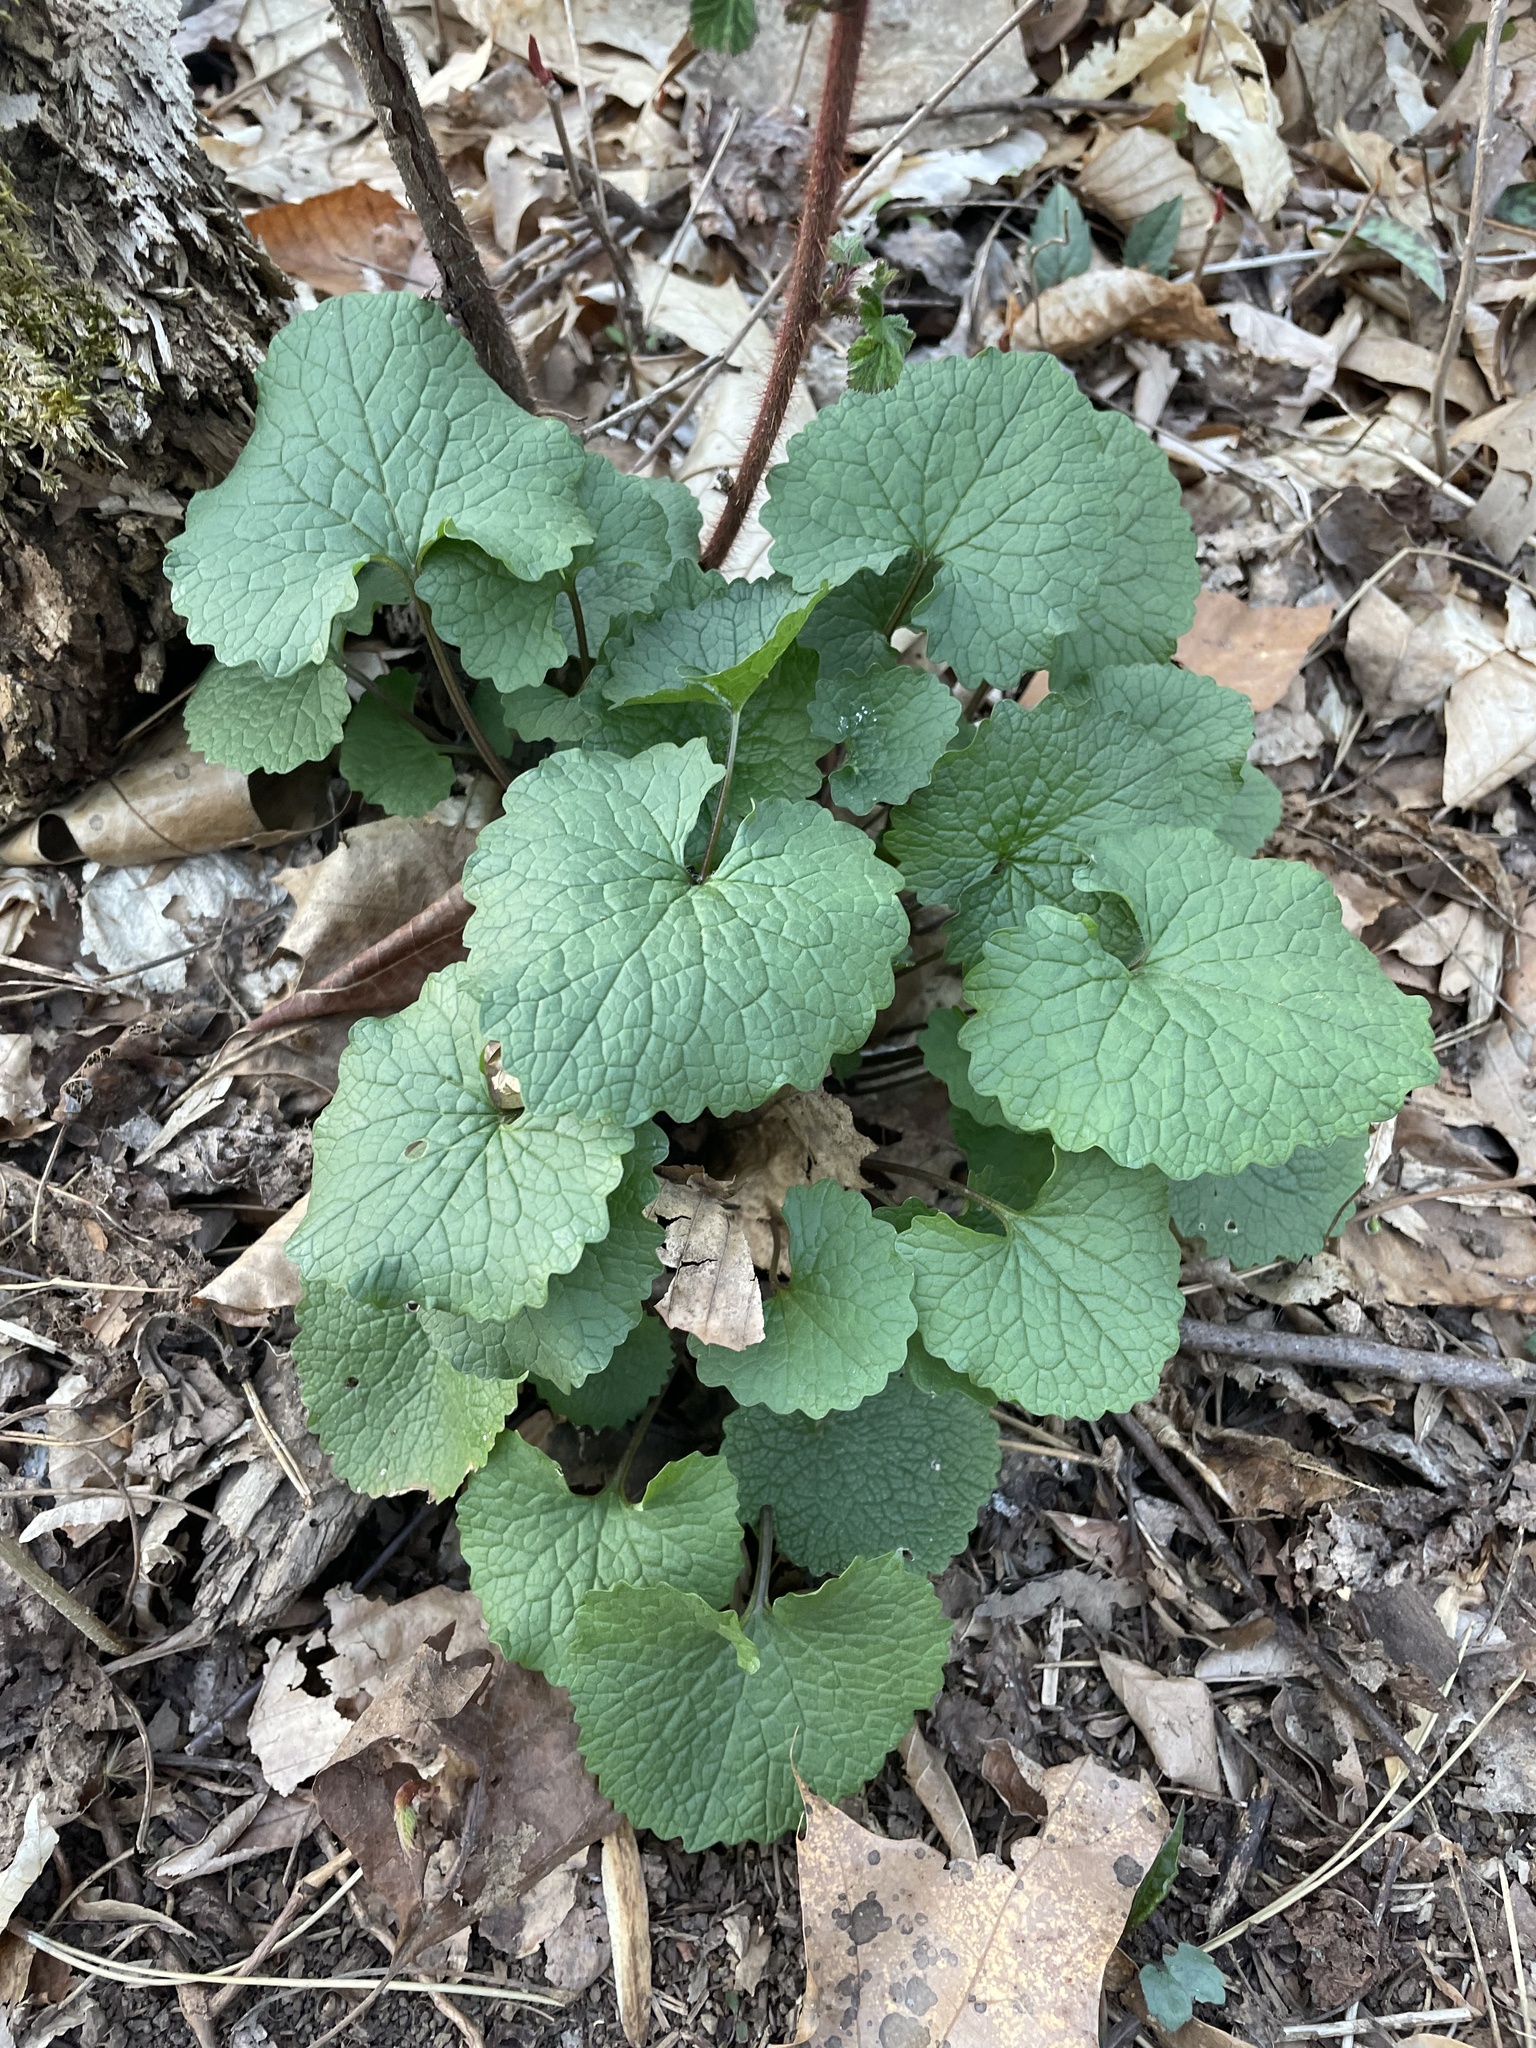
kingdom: Plantae
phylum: Tracheophyta
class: Magnoliopsida
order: Brassicales
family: Brassicaceae
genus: Alliaria
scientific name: Alliaria petiolata
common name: Garlic mustard
